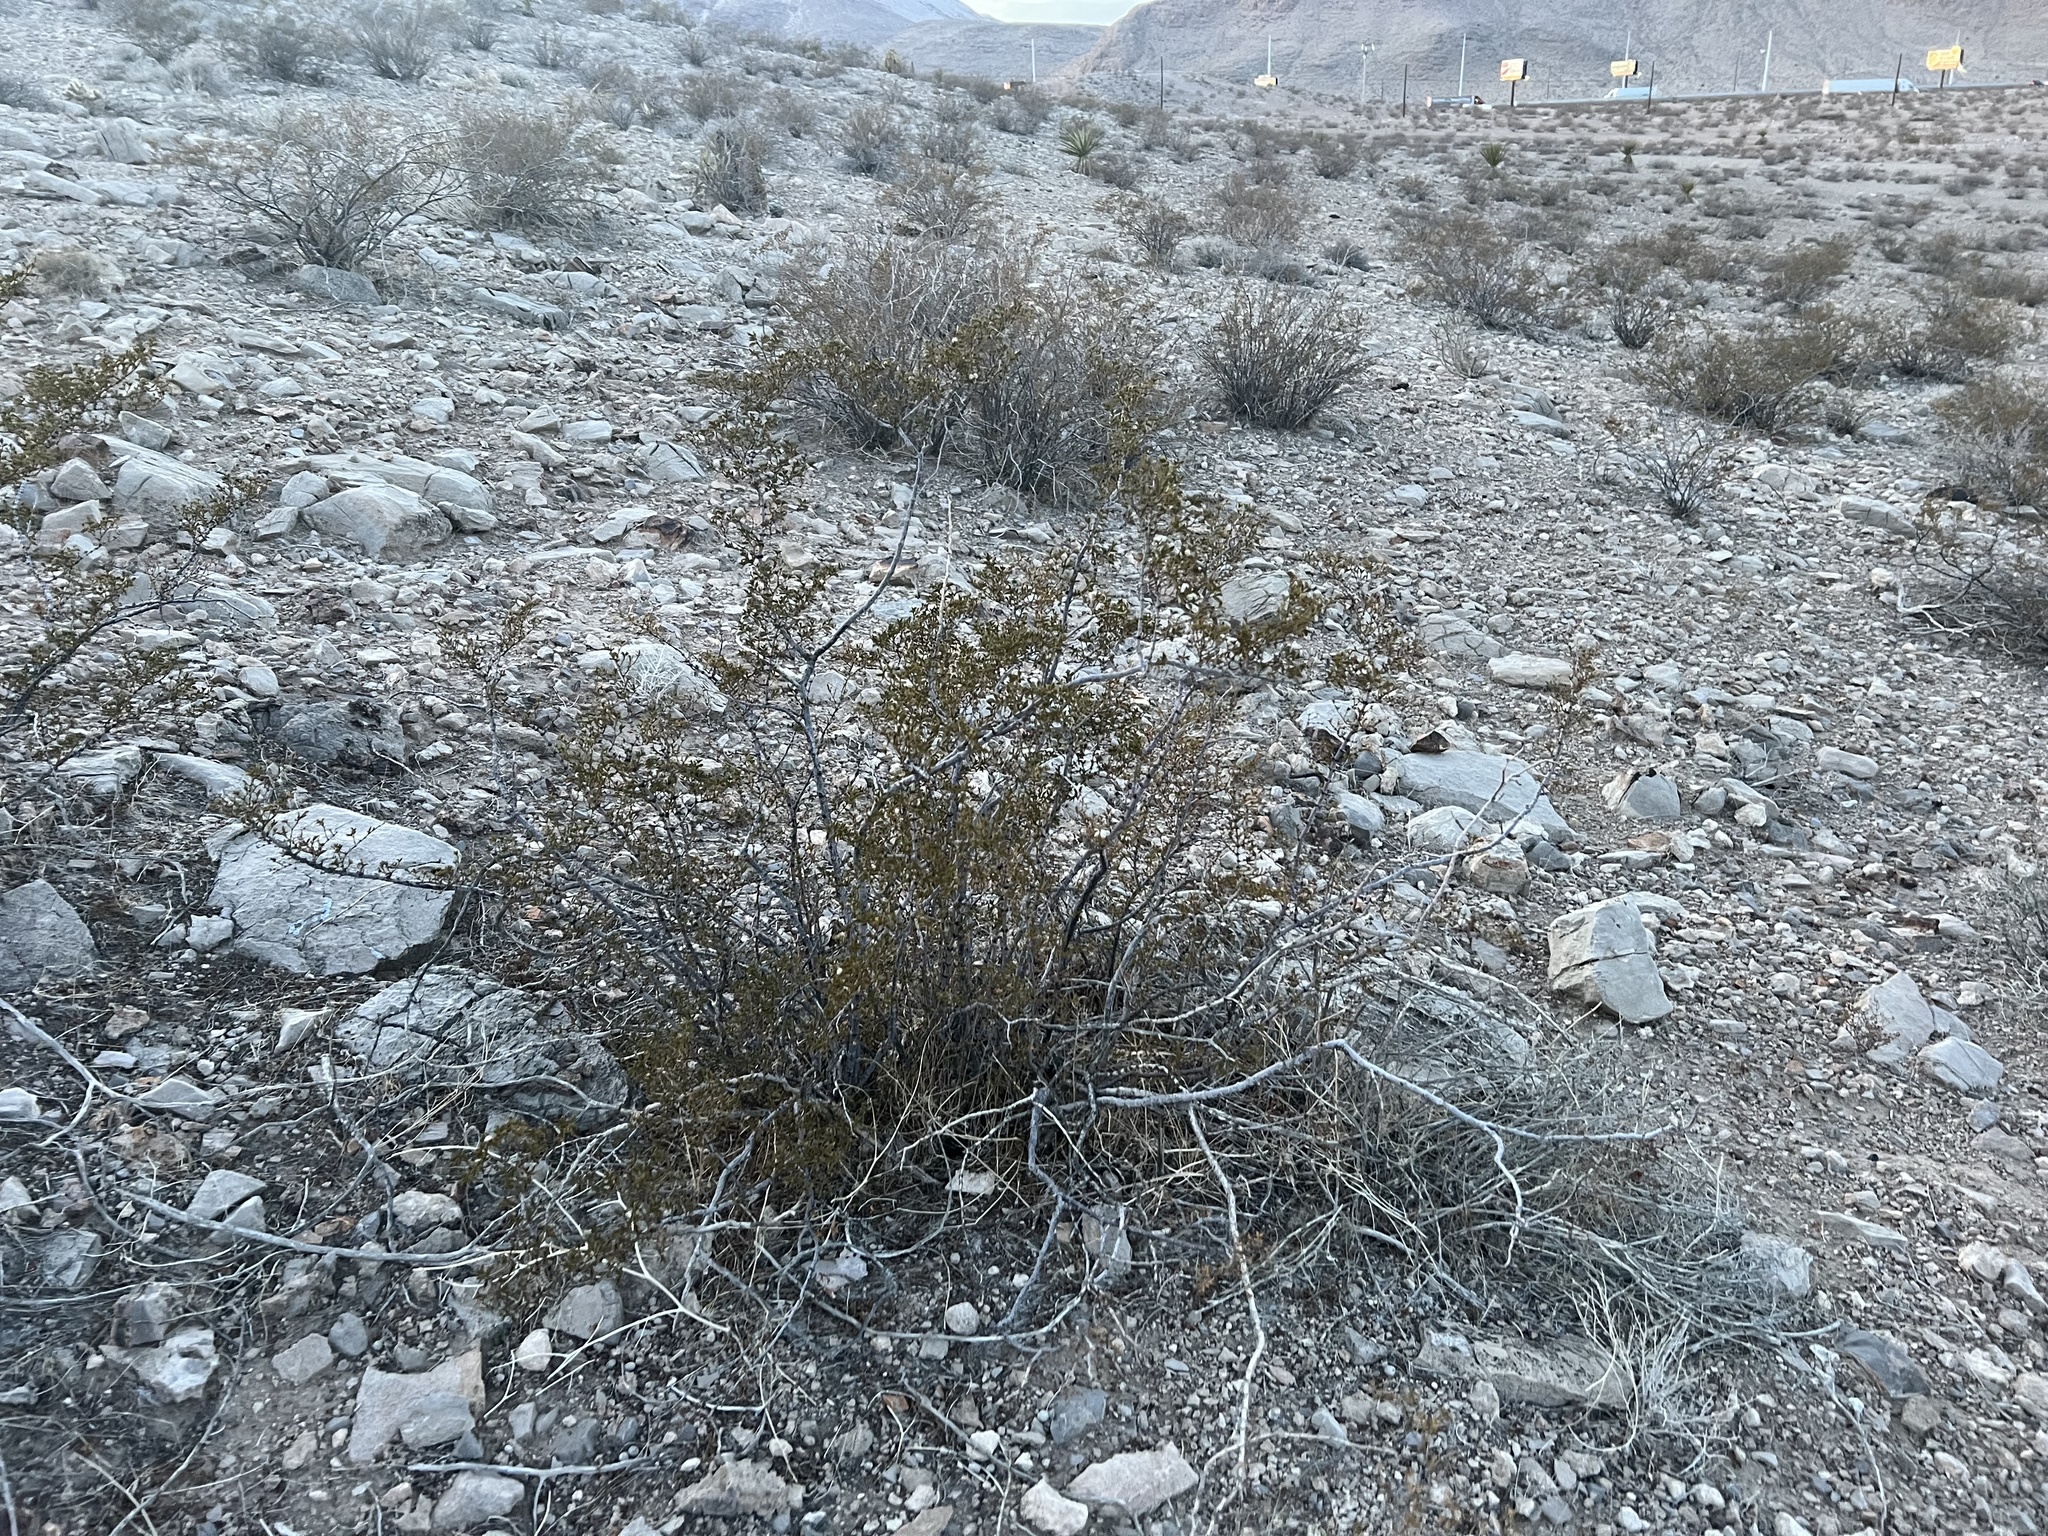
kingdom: Plantae
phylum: Tracheophyta
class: Magnoliopsida
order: Zygophyllales
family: Zygophyllaceae
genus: Larrea
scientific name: Larrea tridentata
